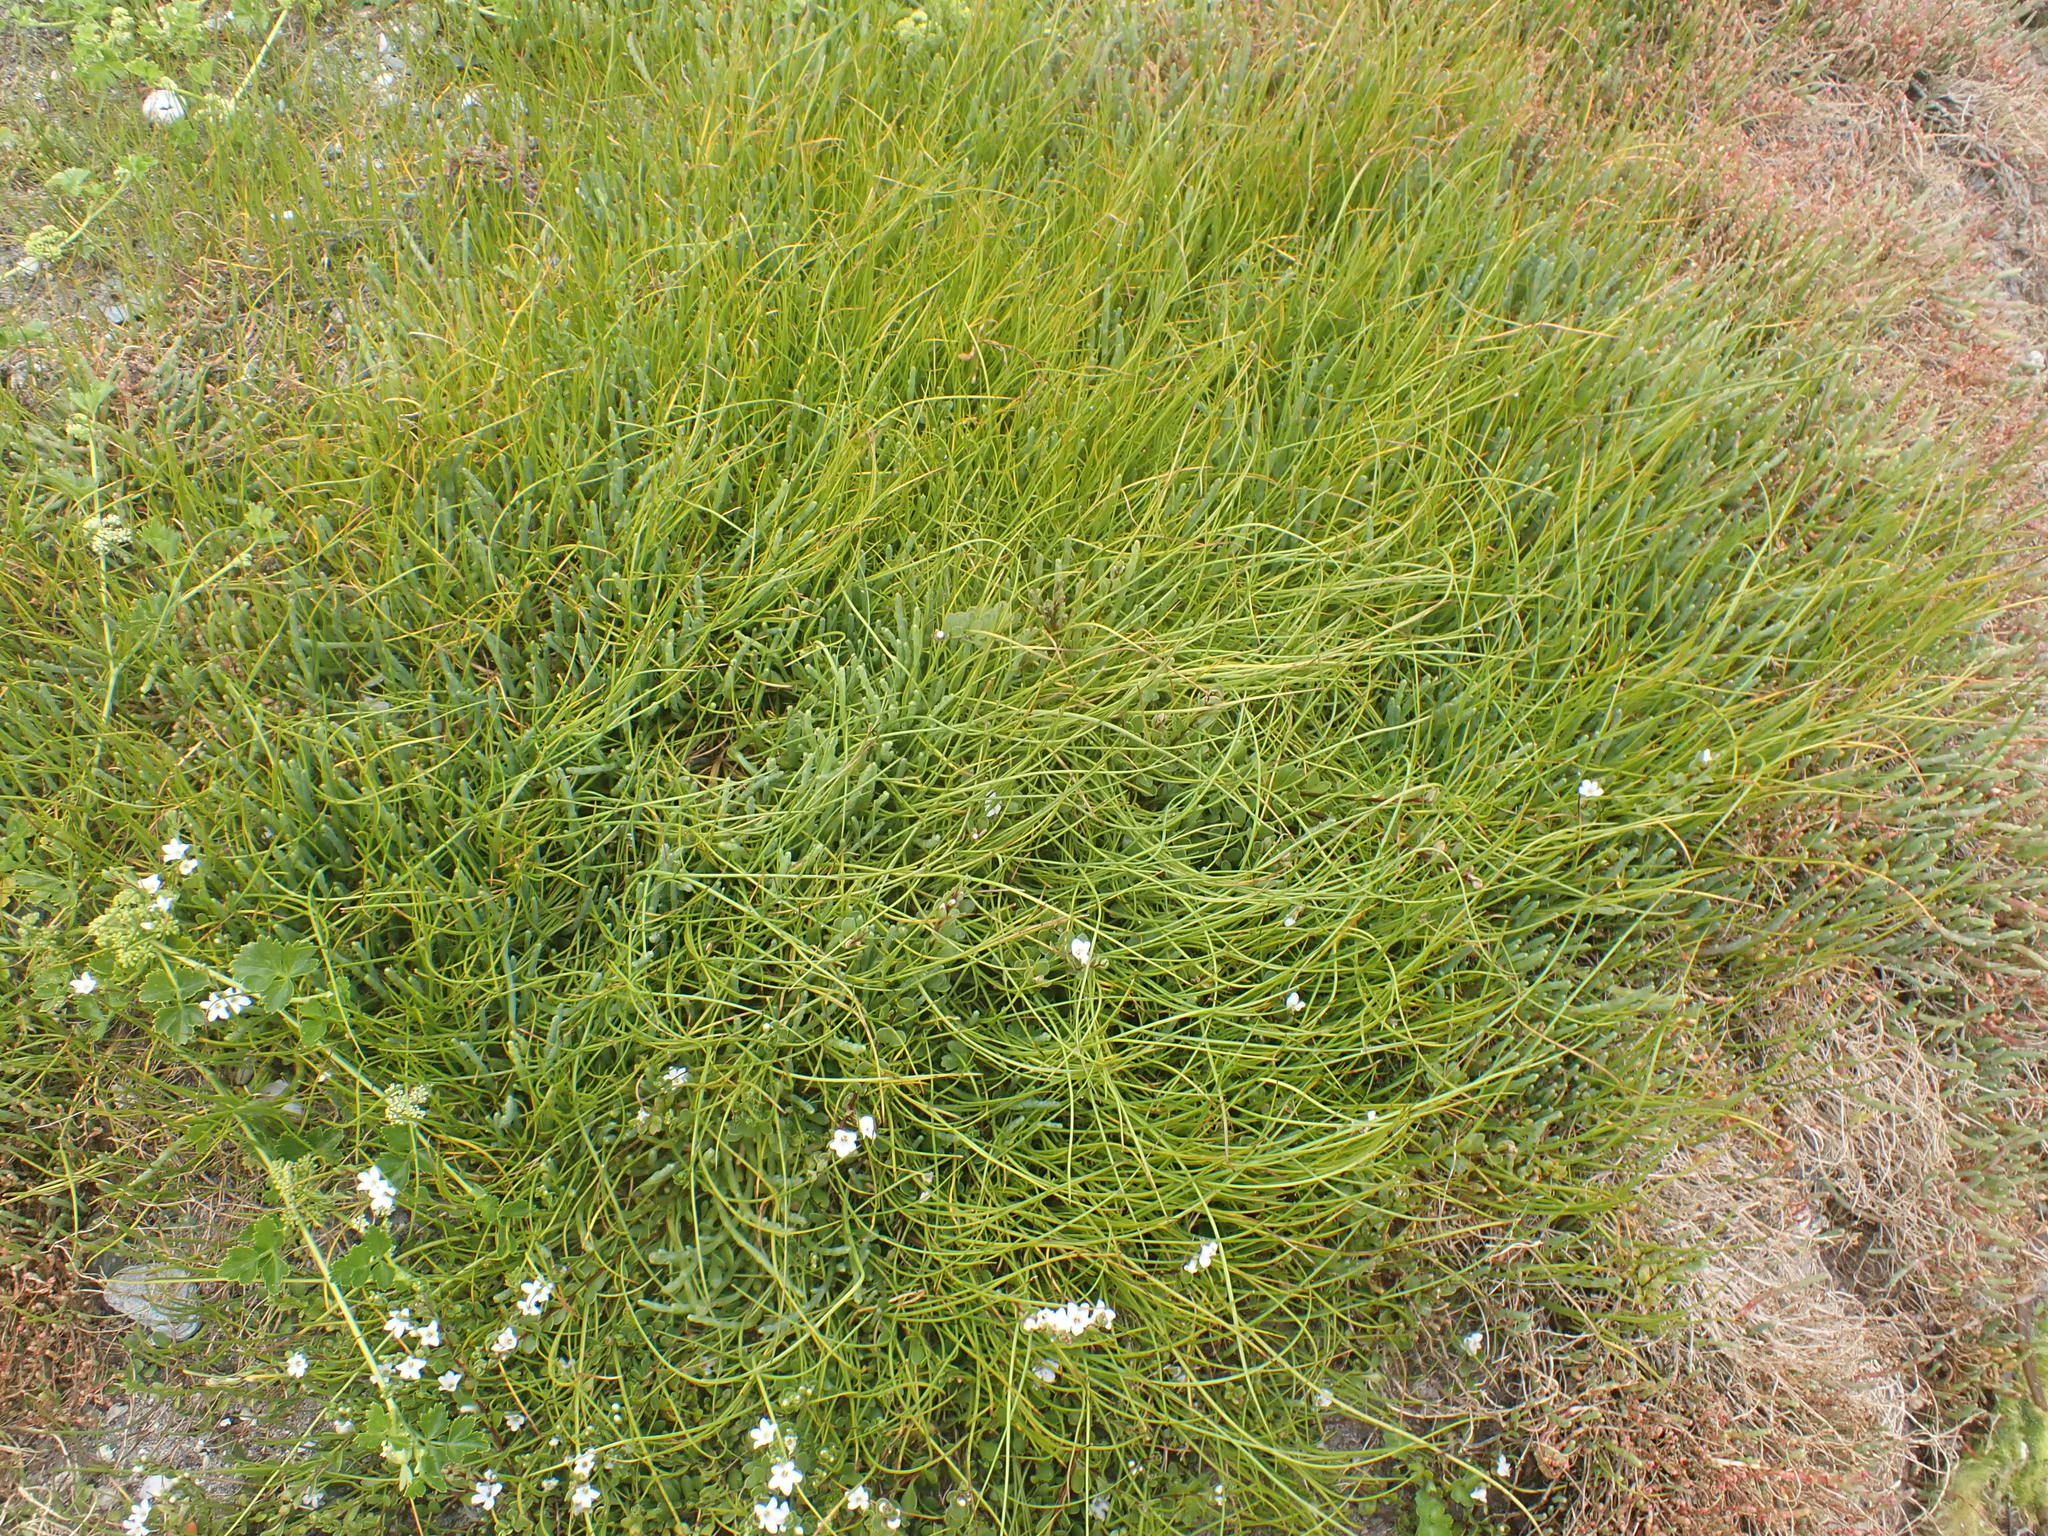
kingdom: Plantae
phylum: Tracheophyta
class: Magnoliopsida
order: Caryophyllales
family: Amaranthaceae
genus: Salicornia
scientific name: Salicornia quinqueflora
